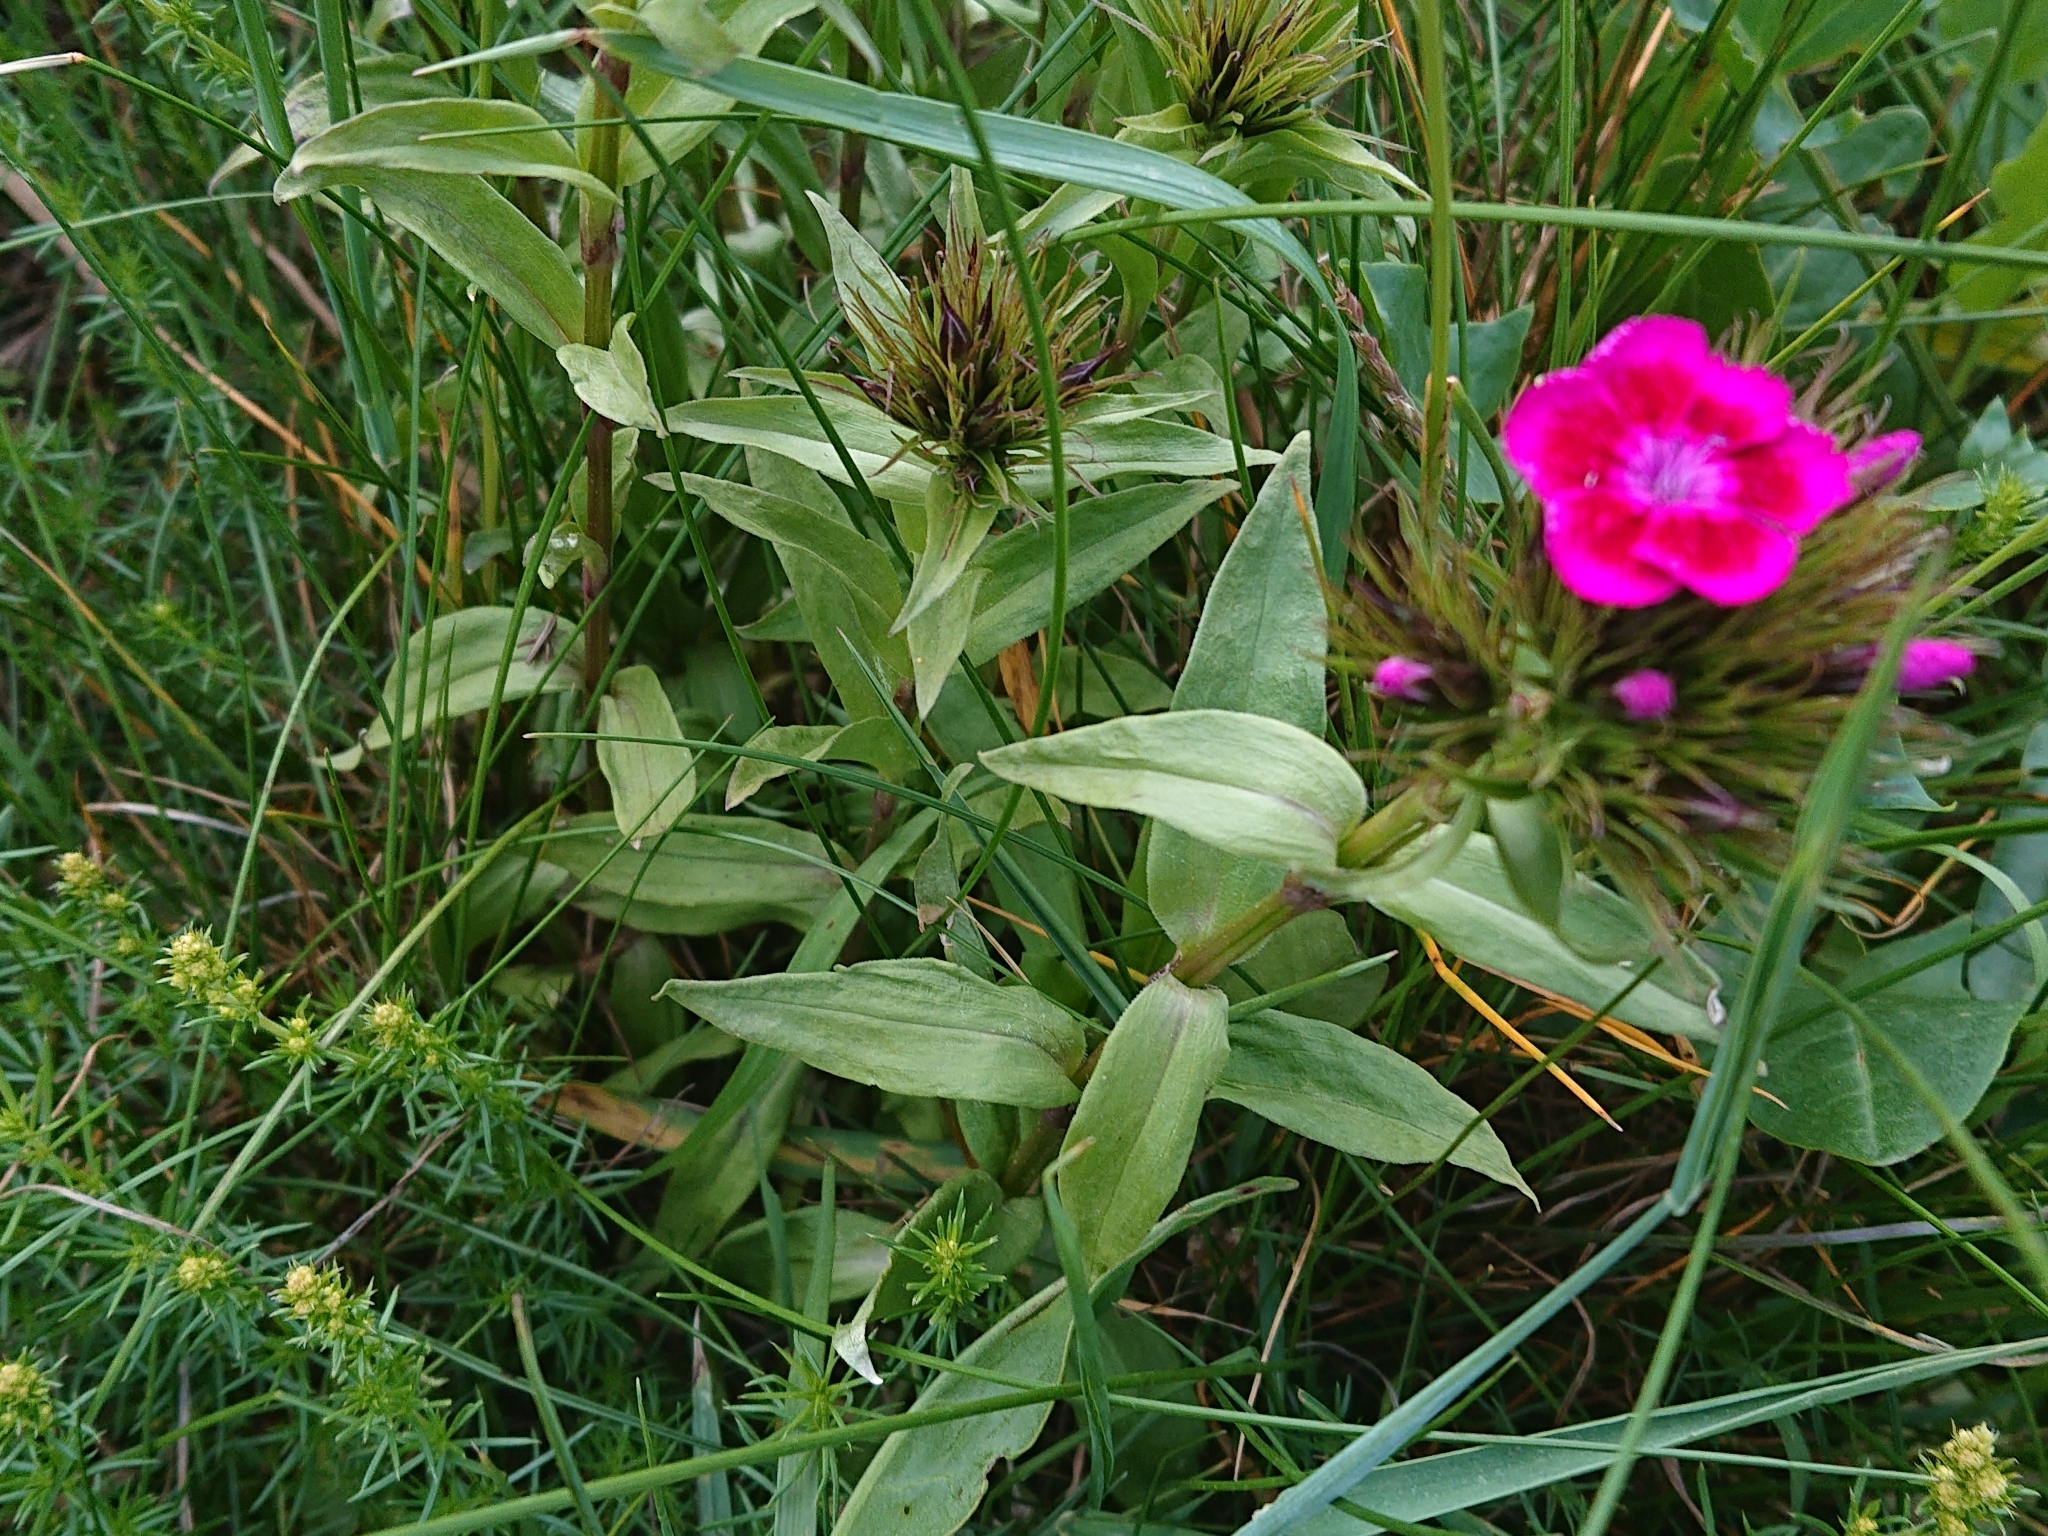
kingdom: Plantae
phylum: Tracheophyta
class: Magnoliopsida
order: Caryophyllales
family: Caryophyllaceae
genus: Dianthus
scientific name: Dianthus barbatus
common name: Sweet-william
